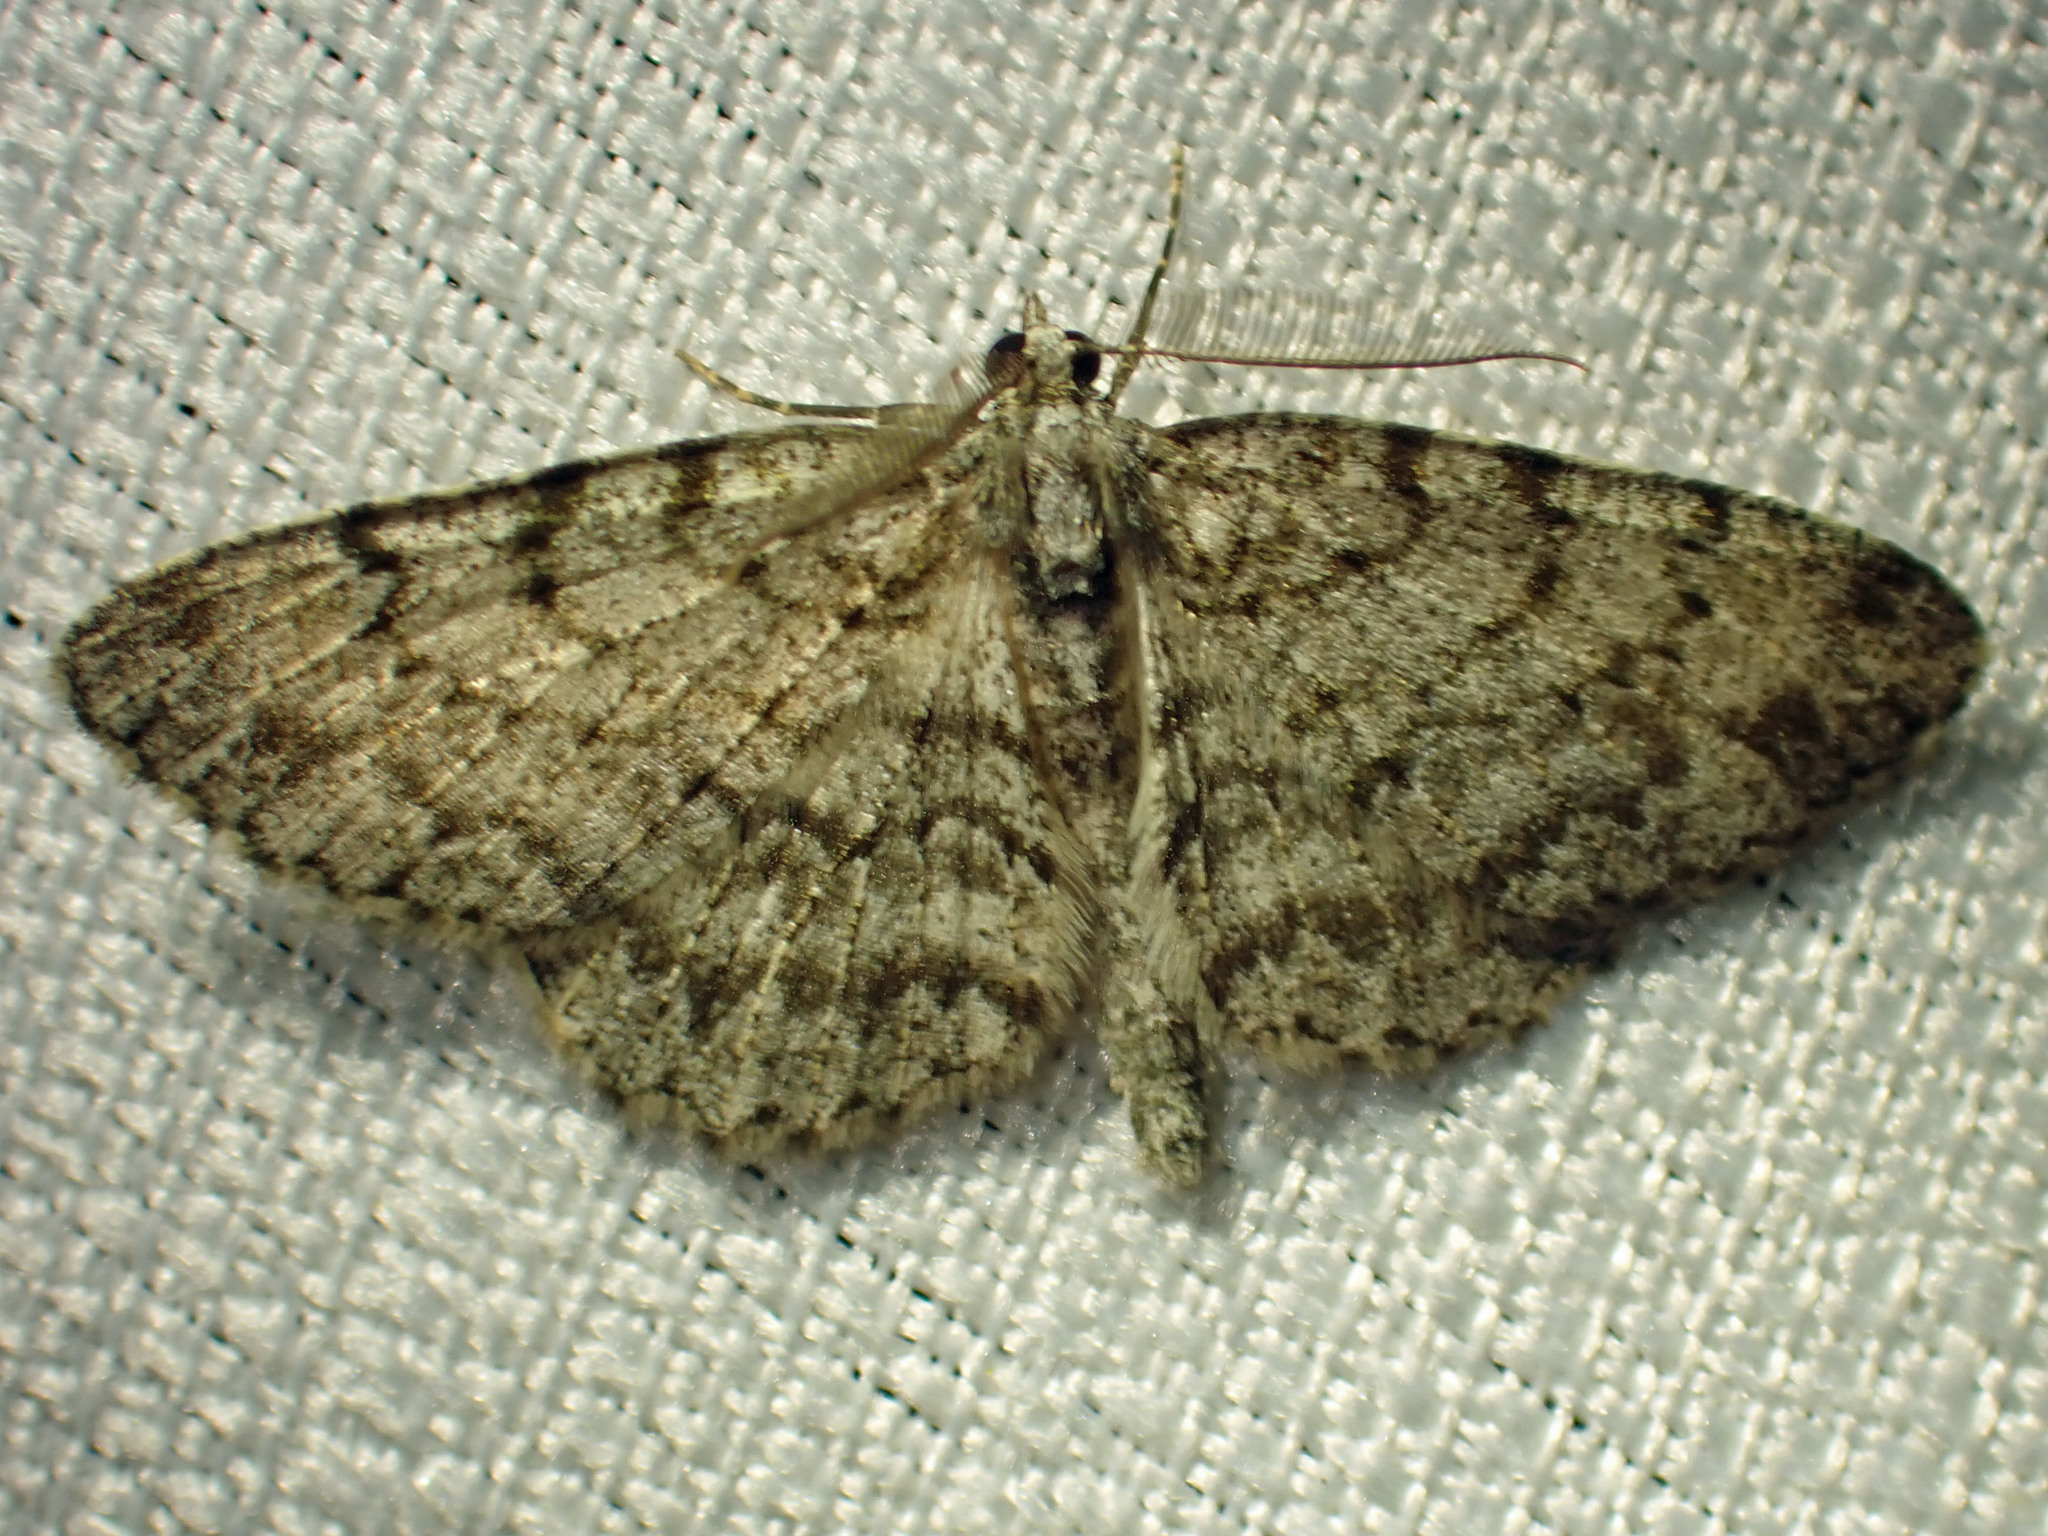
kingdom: Animalia
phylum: Arthropoda
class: Insecta
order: Lepidoptera
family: Geometridae
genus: Protoboarmia
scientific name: Protoboarmia porcelaria
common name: Porcelain gray
